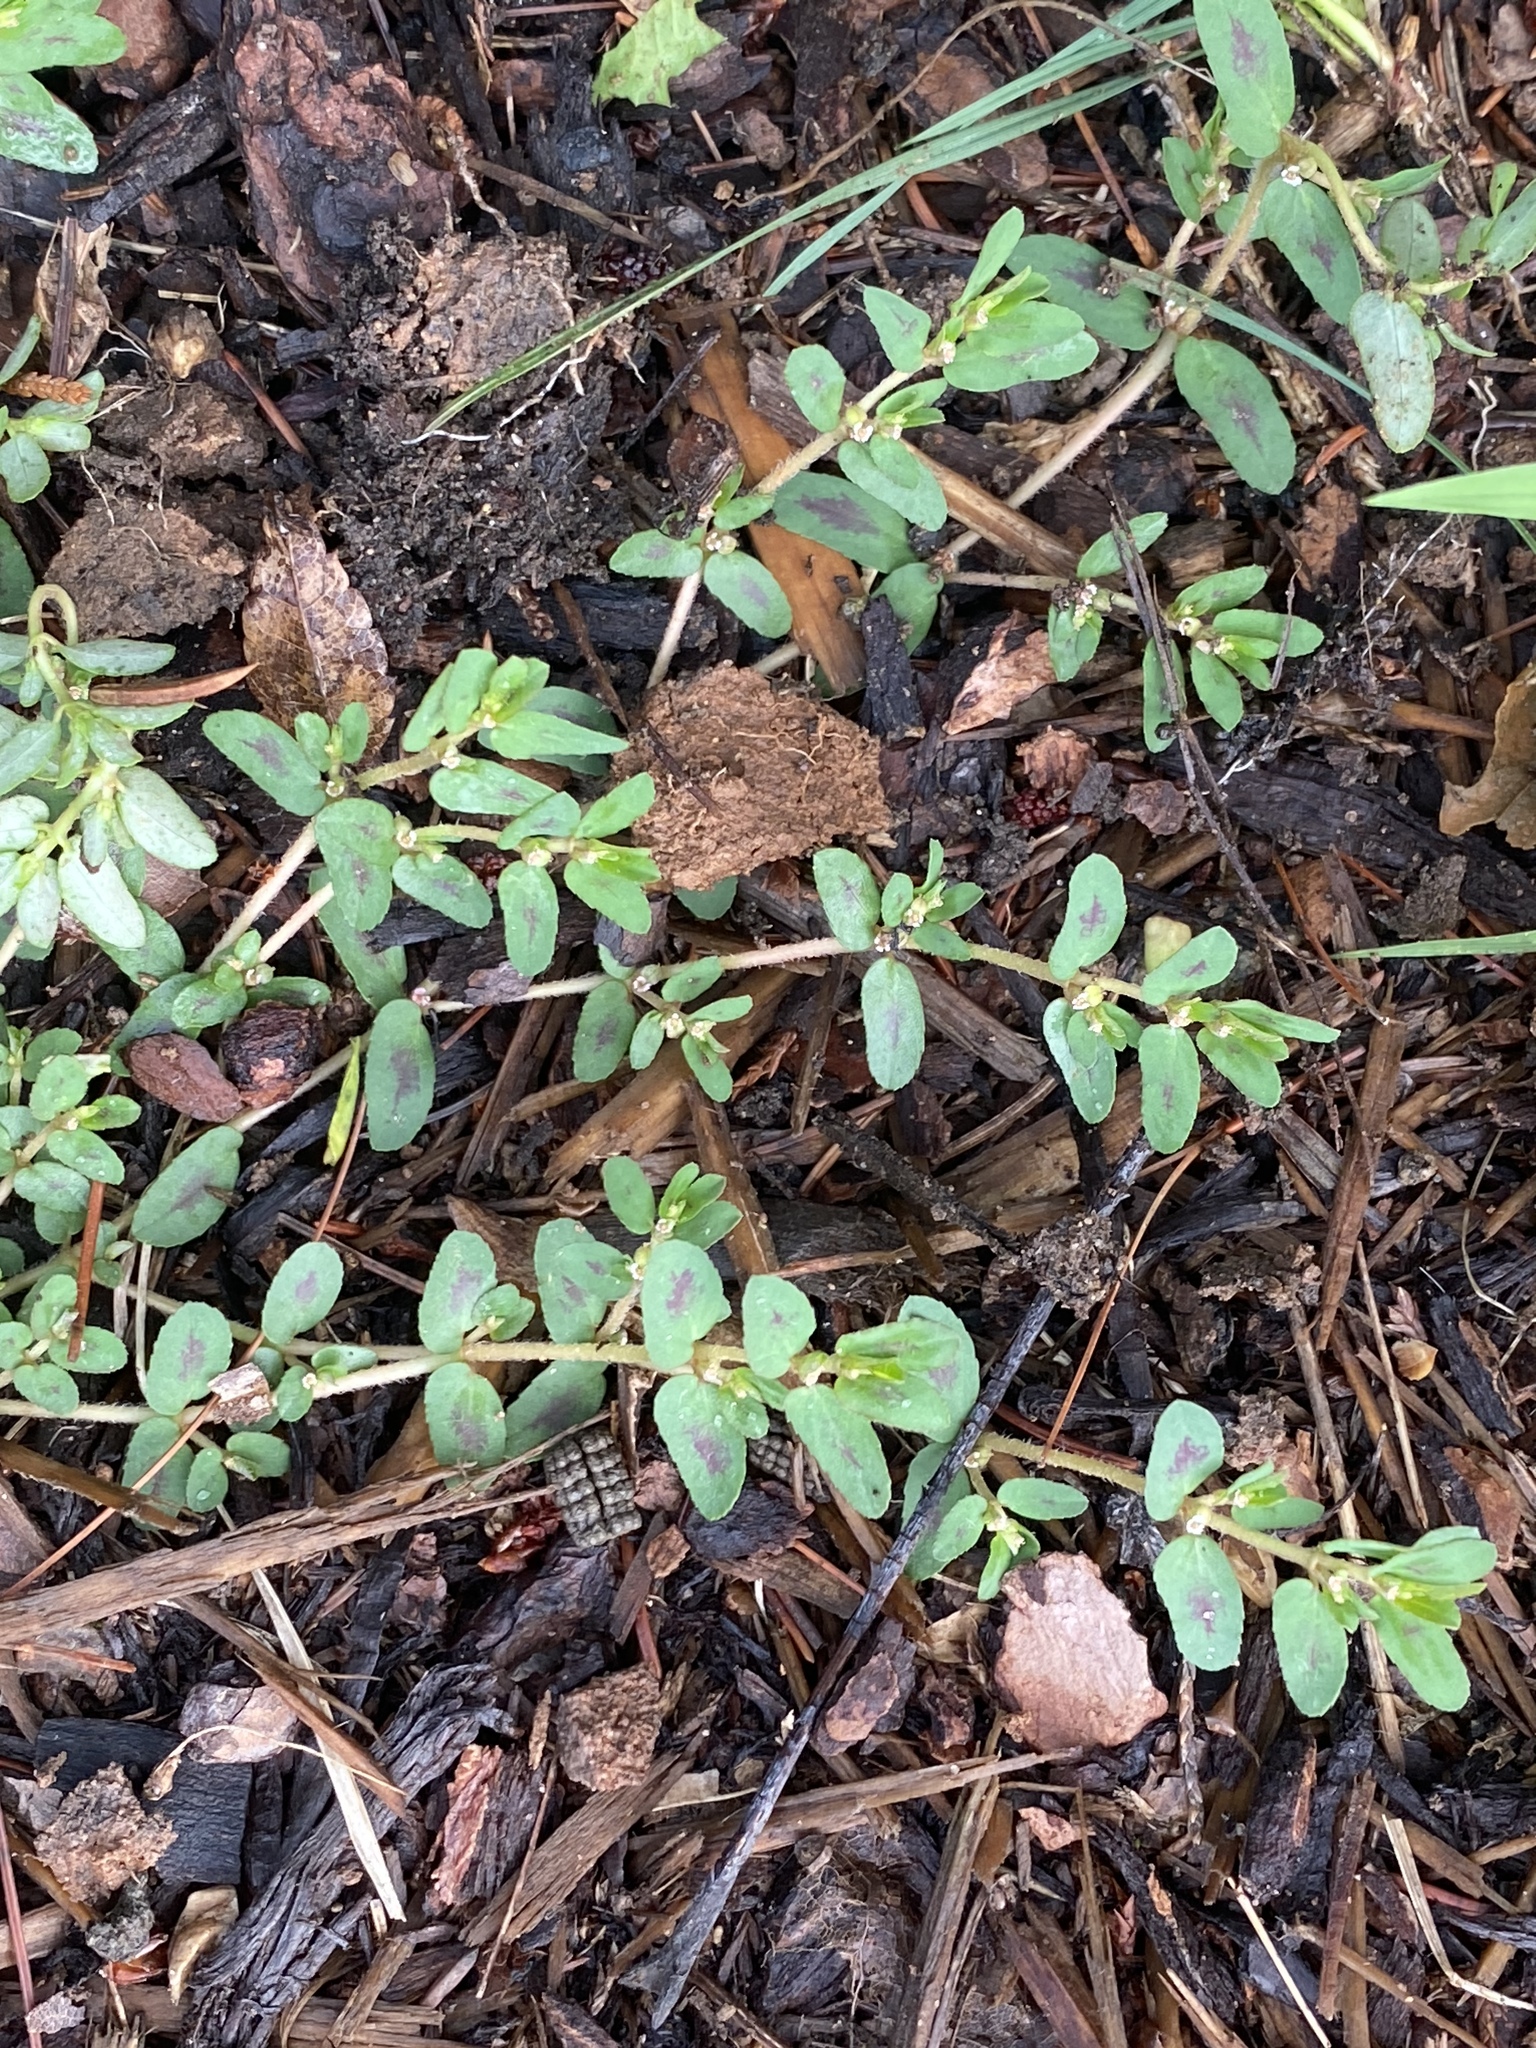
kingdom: Plantae
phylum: Tracheophyta
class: Magnoliopsida
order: Malpighiales
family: Euphorbiaceae
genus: Euphorbia
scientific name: Euphorbia maculata
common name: Spotted spurge
